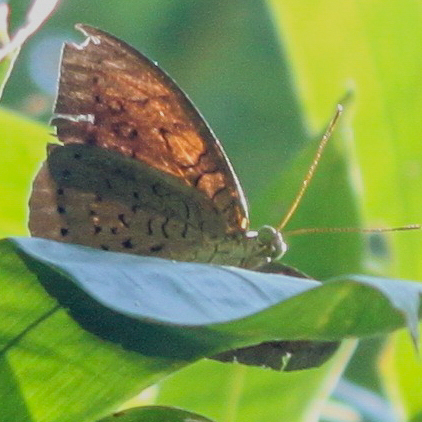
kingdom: Animalia
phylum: Arthropoda
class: Insecta
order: Lepidoptera
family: Nymphalidae
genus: Tanaecia
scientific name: Tanaecia julii
